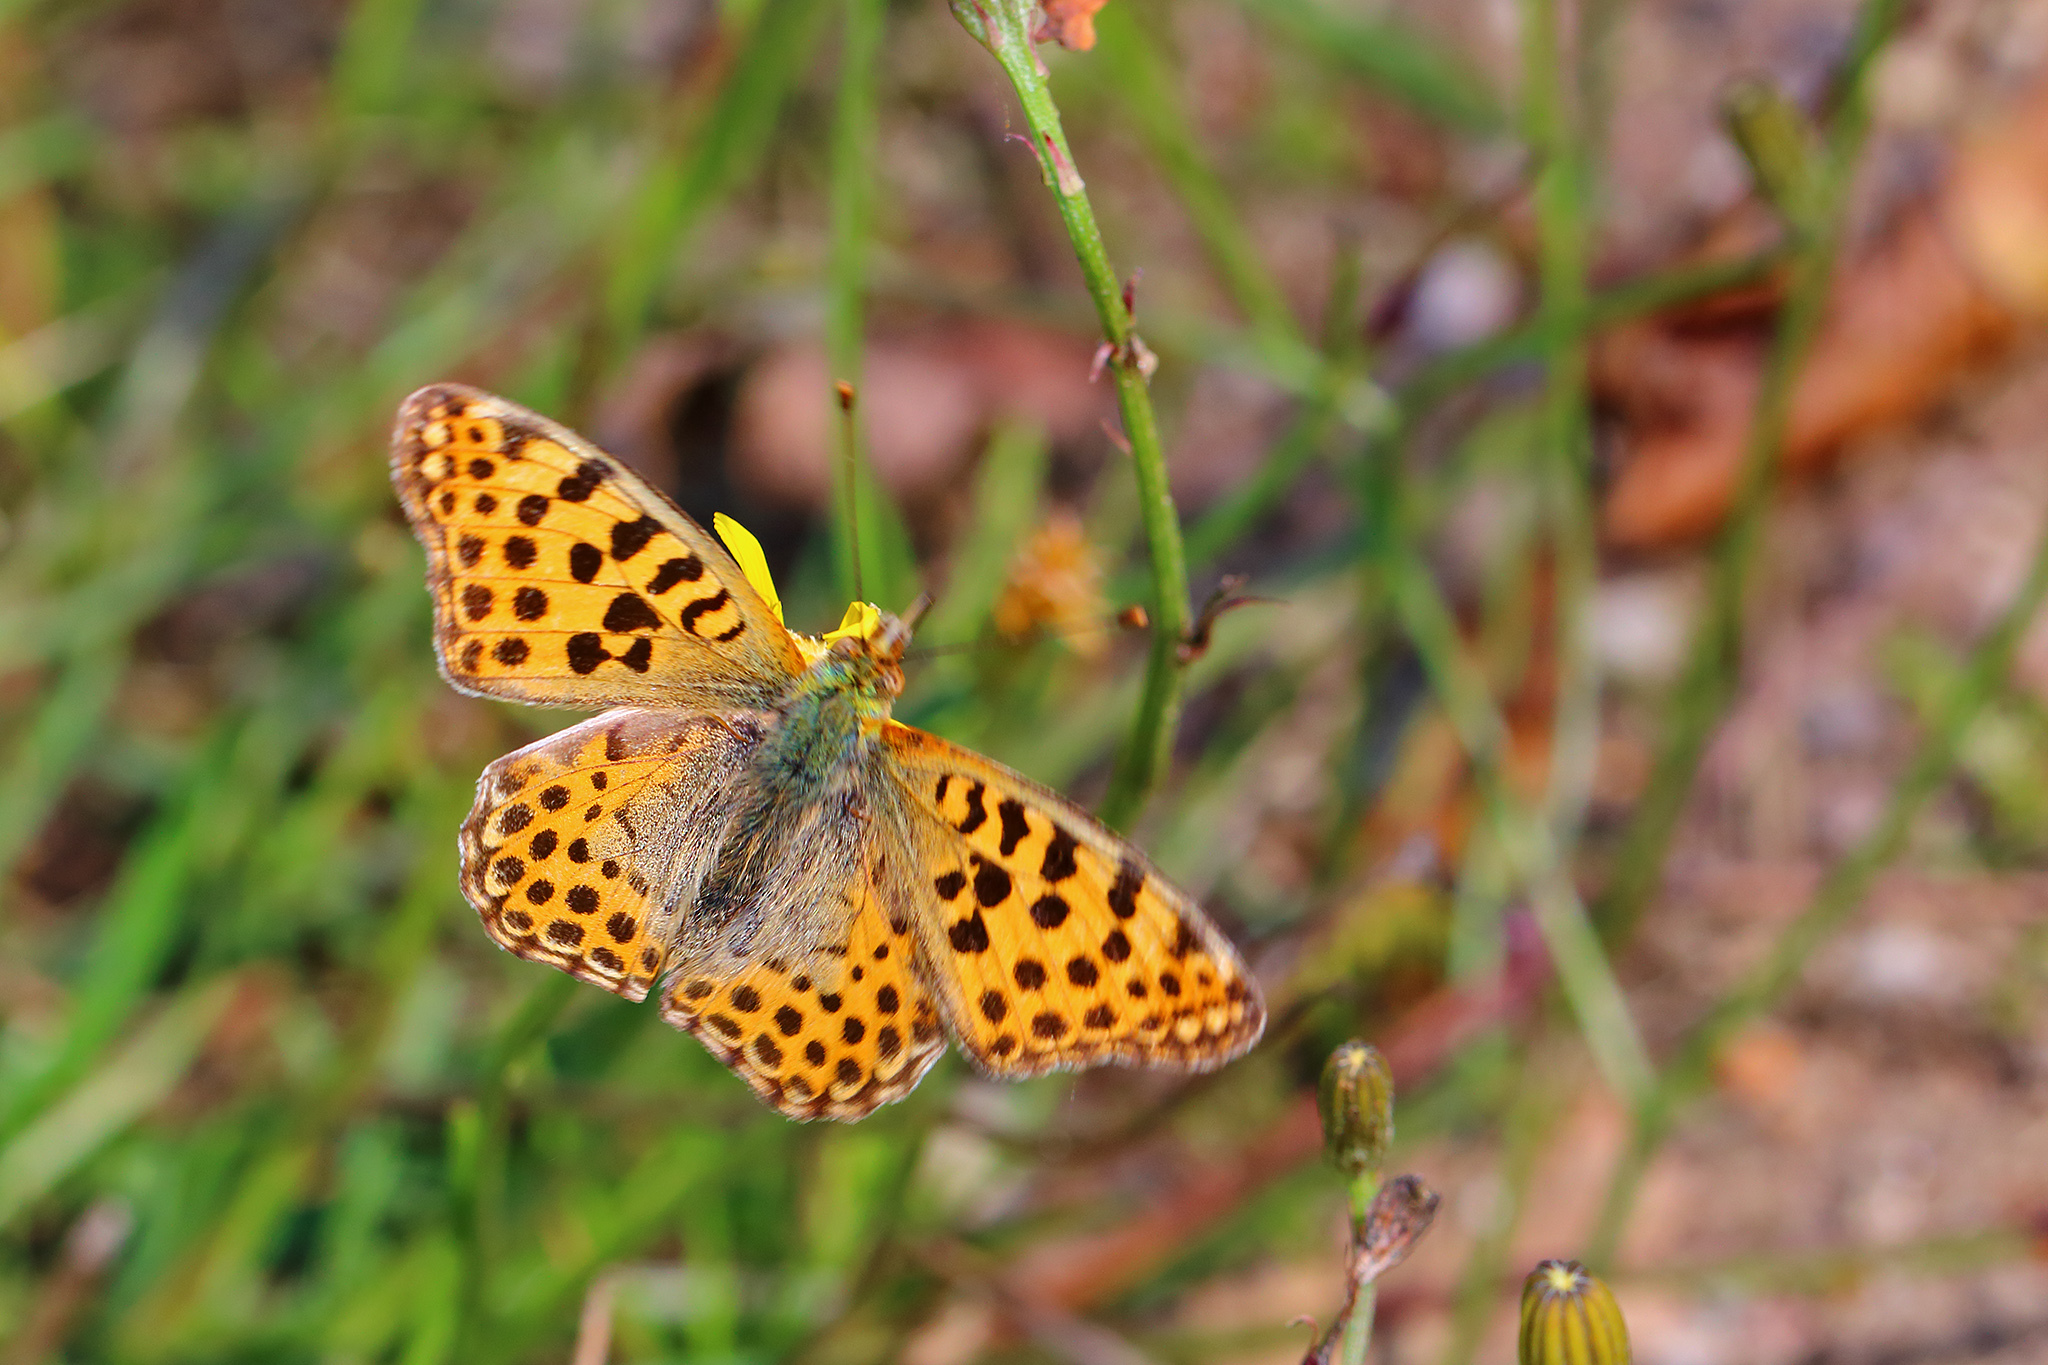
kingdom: Animalia
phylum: Arthropoda
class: Insecta
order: Lepidoptera
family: Nymphalidae
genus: Issoria
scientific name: Issoria lathonia
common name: Queen of spain fritillary
